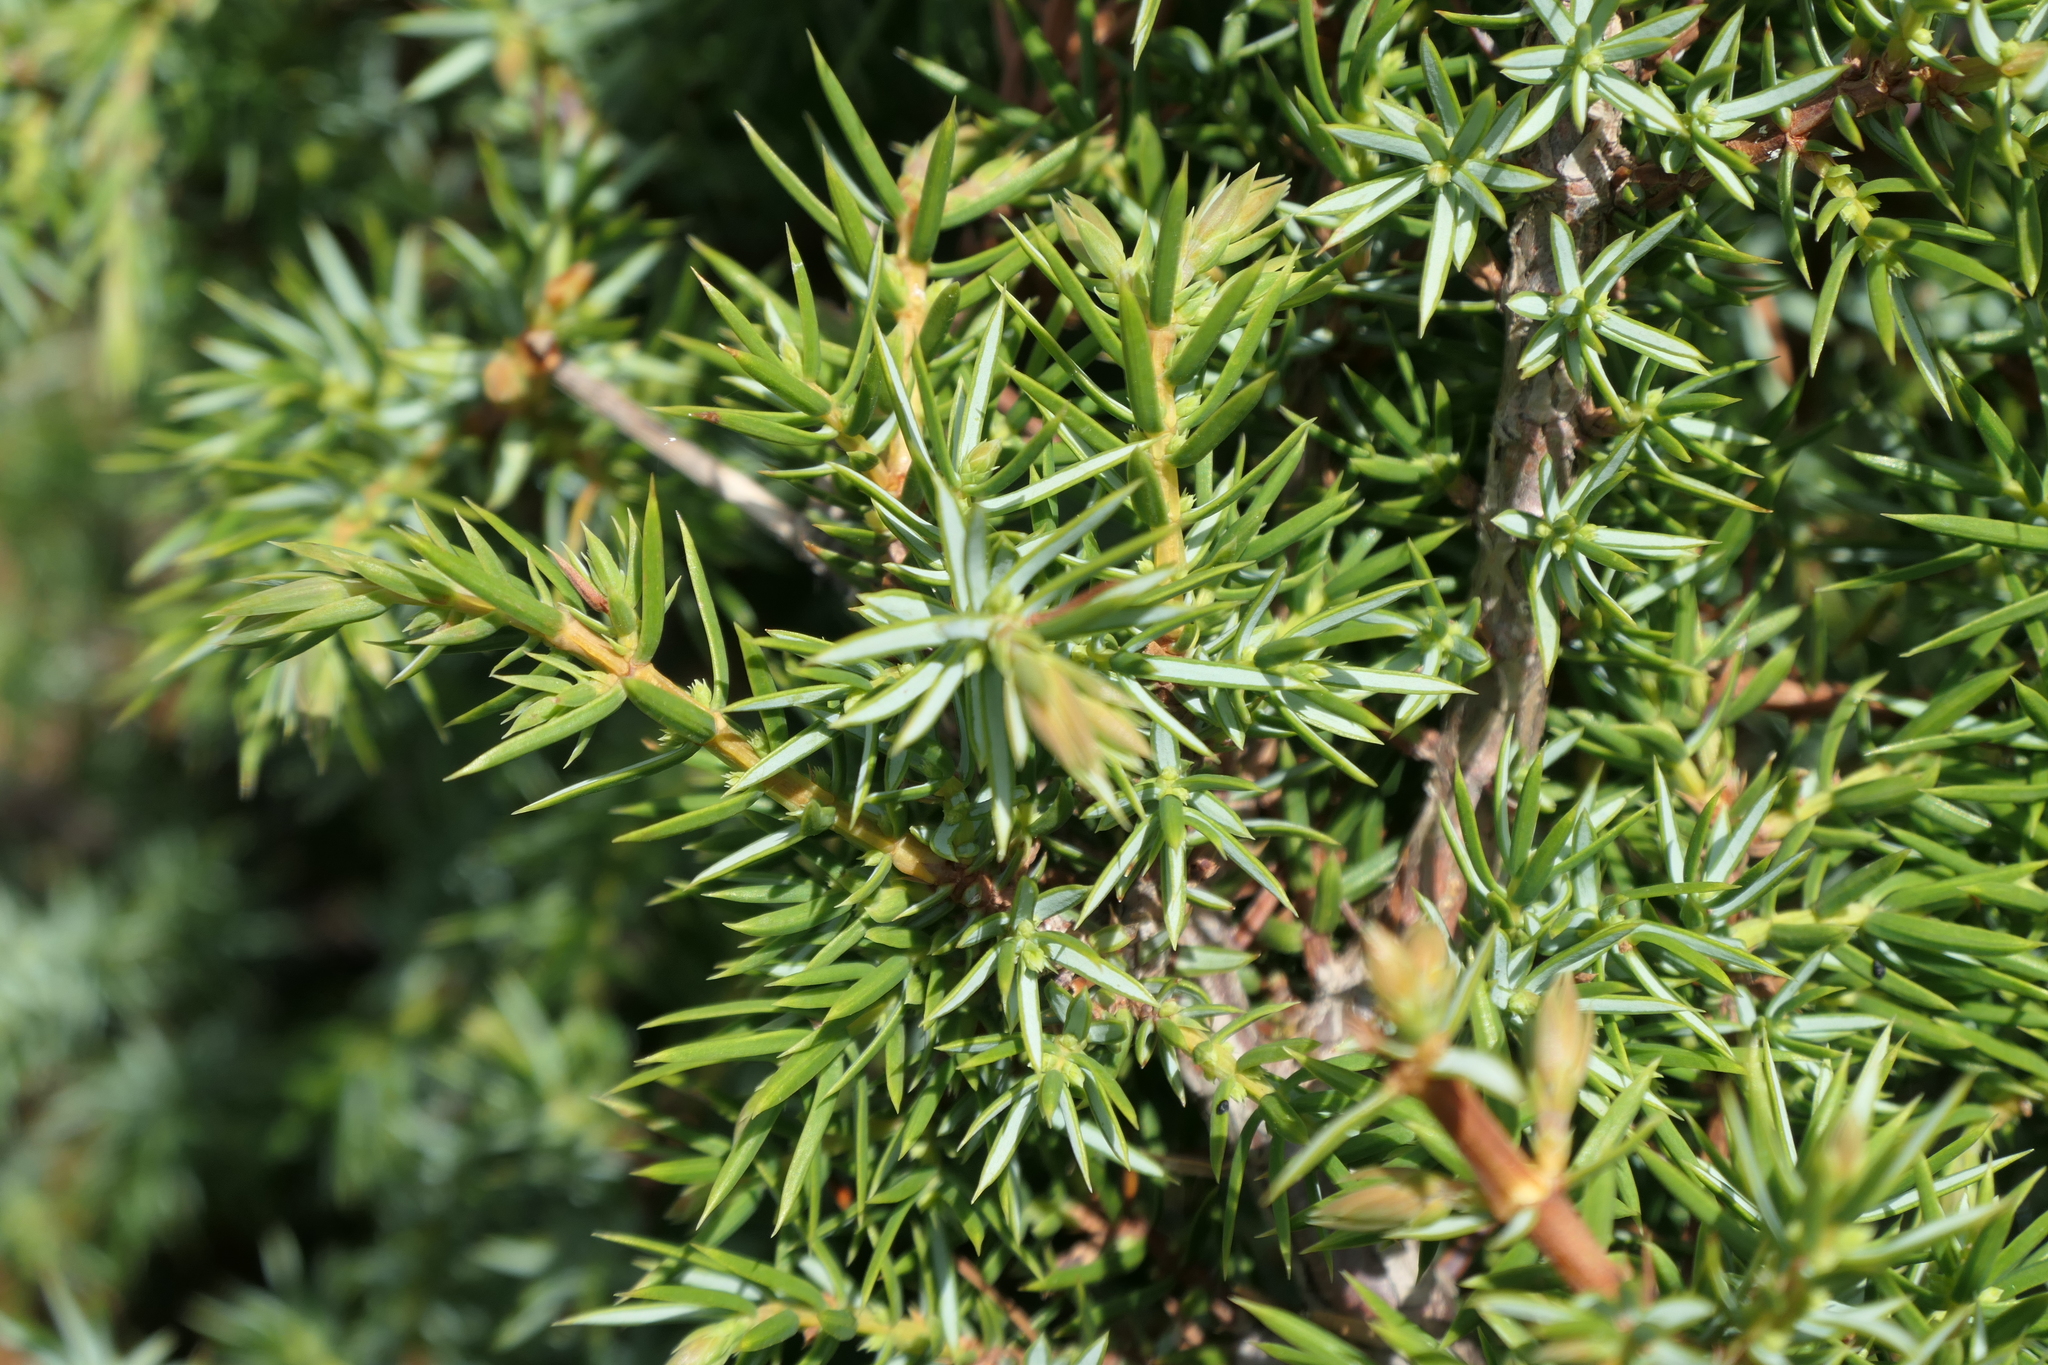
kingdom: Plantae
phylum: Tracheophyta
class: Pinopsida
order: Pinales
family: Cupressaceae
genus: Juniperus
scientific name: Juniperus communis
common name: Common juniper
